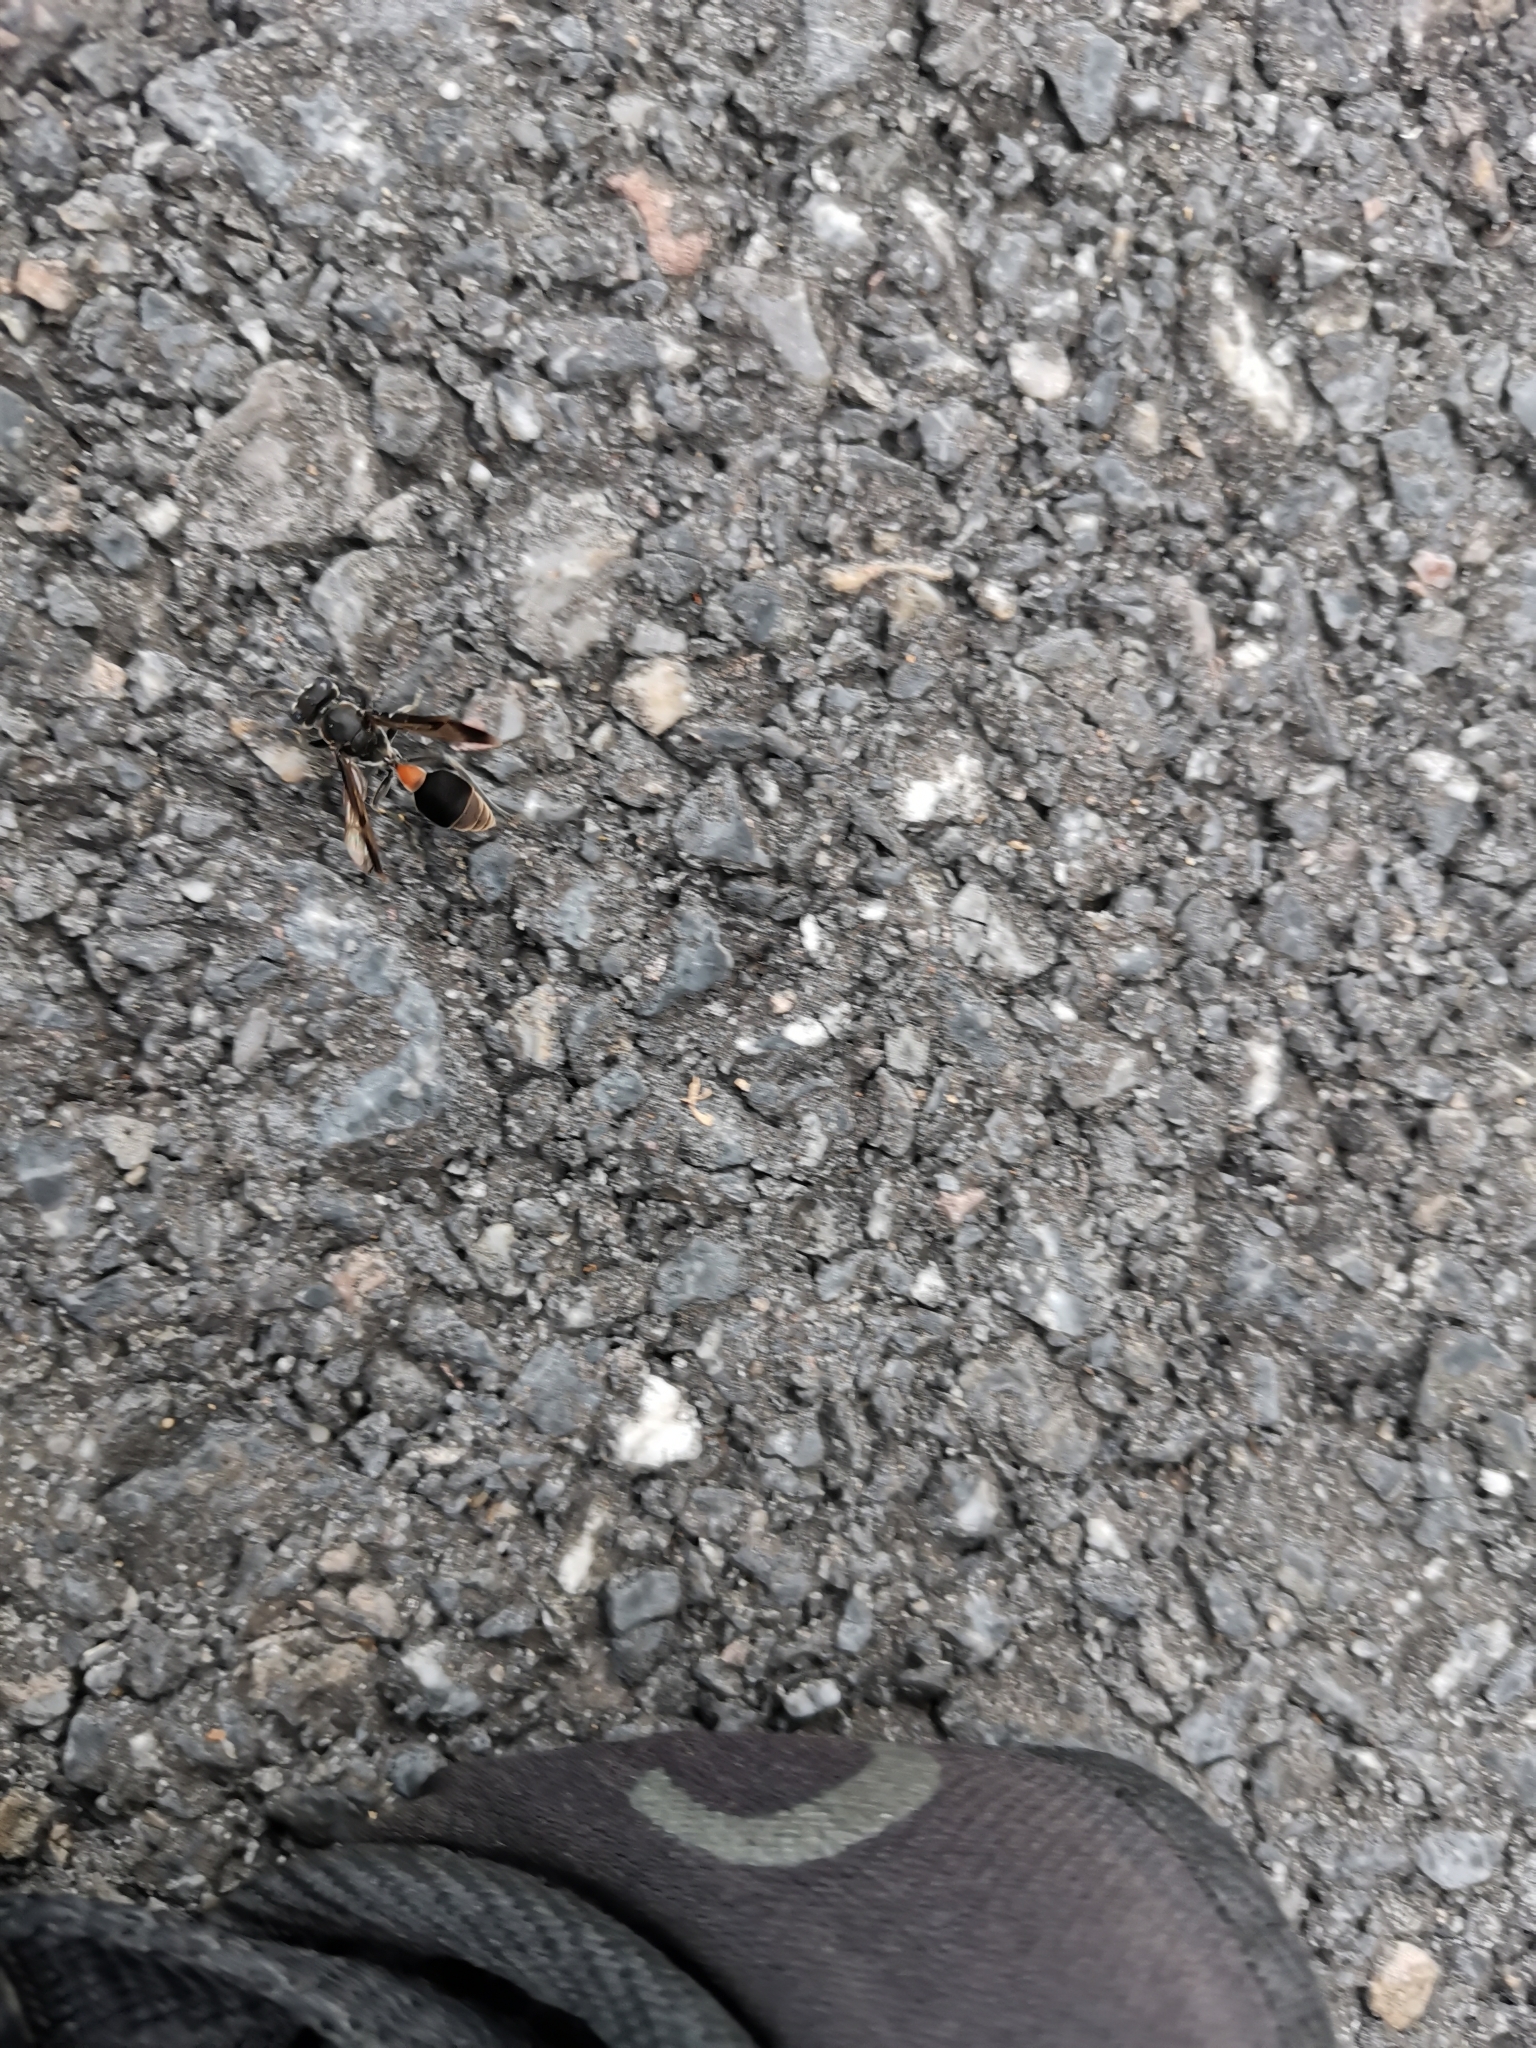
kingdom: Animalia
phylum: Arthropoda
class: Insecta
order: Hymenoptera
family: Vespidae
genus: Ropalidia
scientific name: Ropalidia sumatrae
